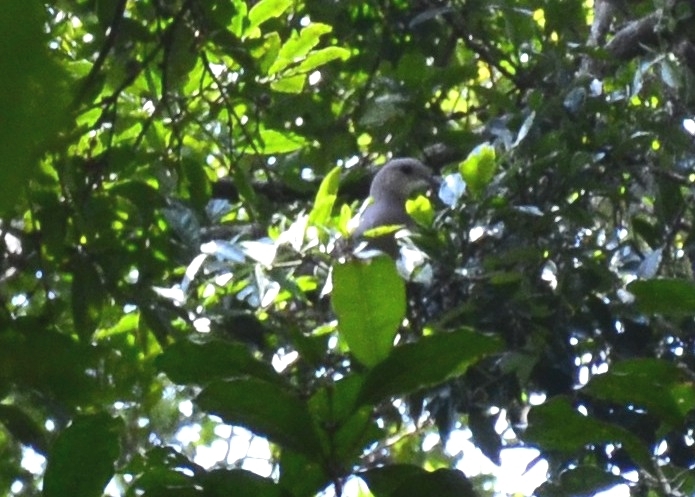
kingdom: Animalia
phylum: Chordata
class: Aves
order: Columbiformes
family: Columbidae
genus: Ducula
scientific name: Ducula badia
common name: Mountain imperial pigeon
